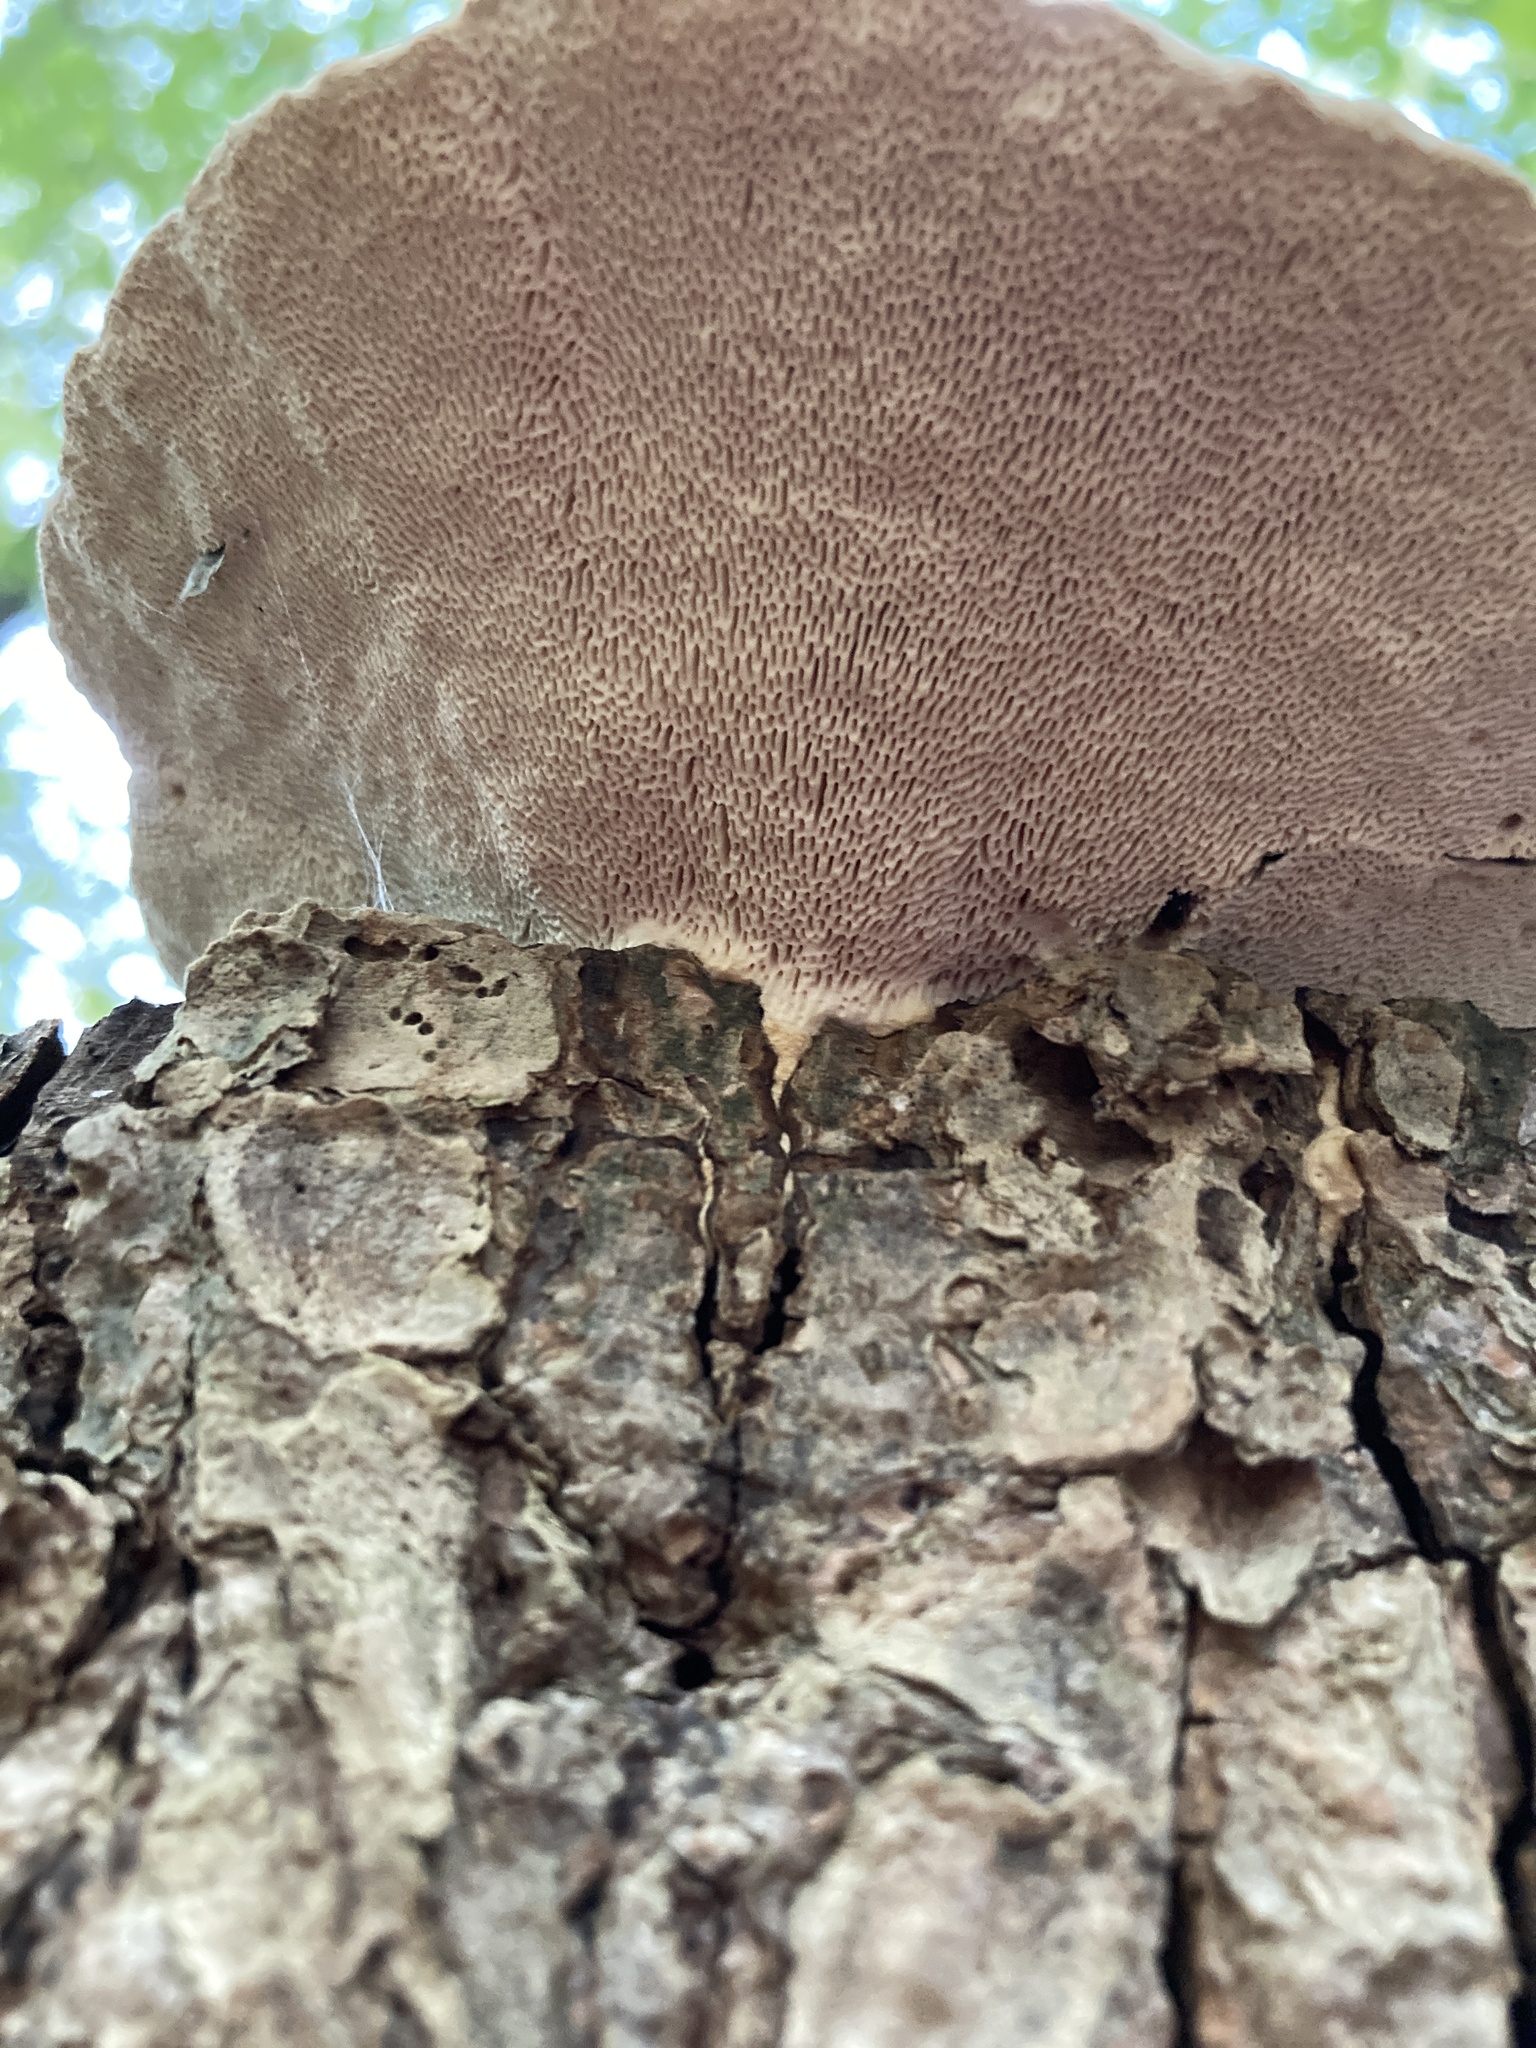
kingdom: Fungi
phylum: Basidiomycota
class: Agaricomycetes
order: Polyporales
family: Polyporaceae
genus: Trametes
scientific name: Trametes gibbosa
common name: Lumpy bracket
